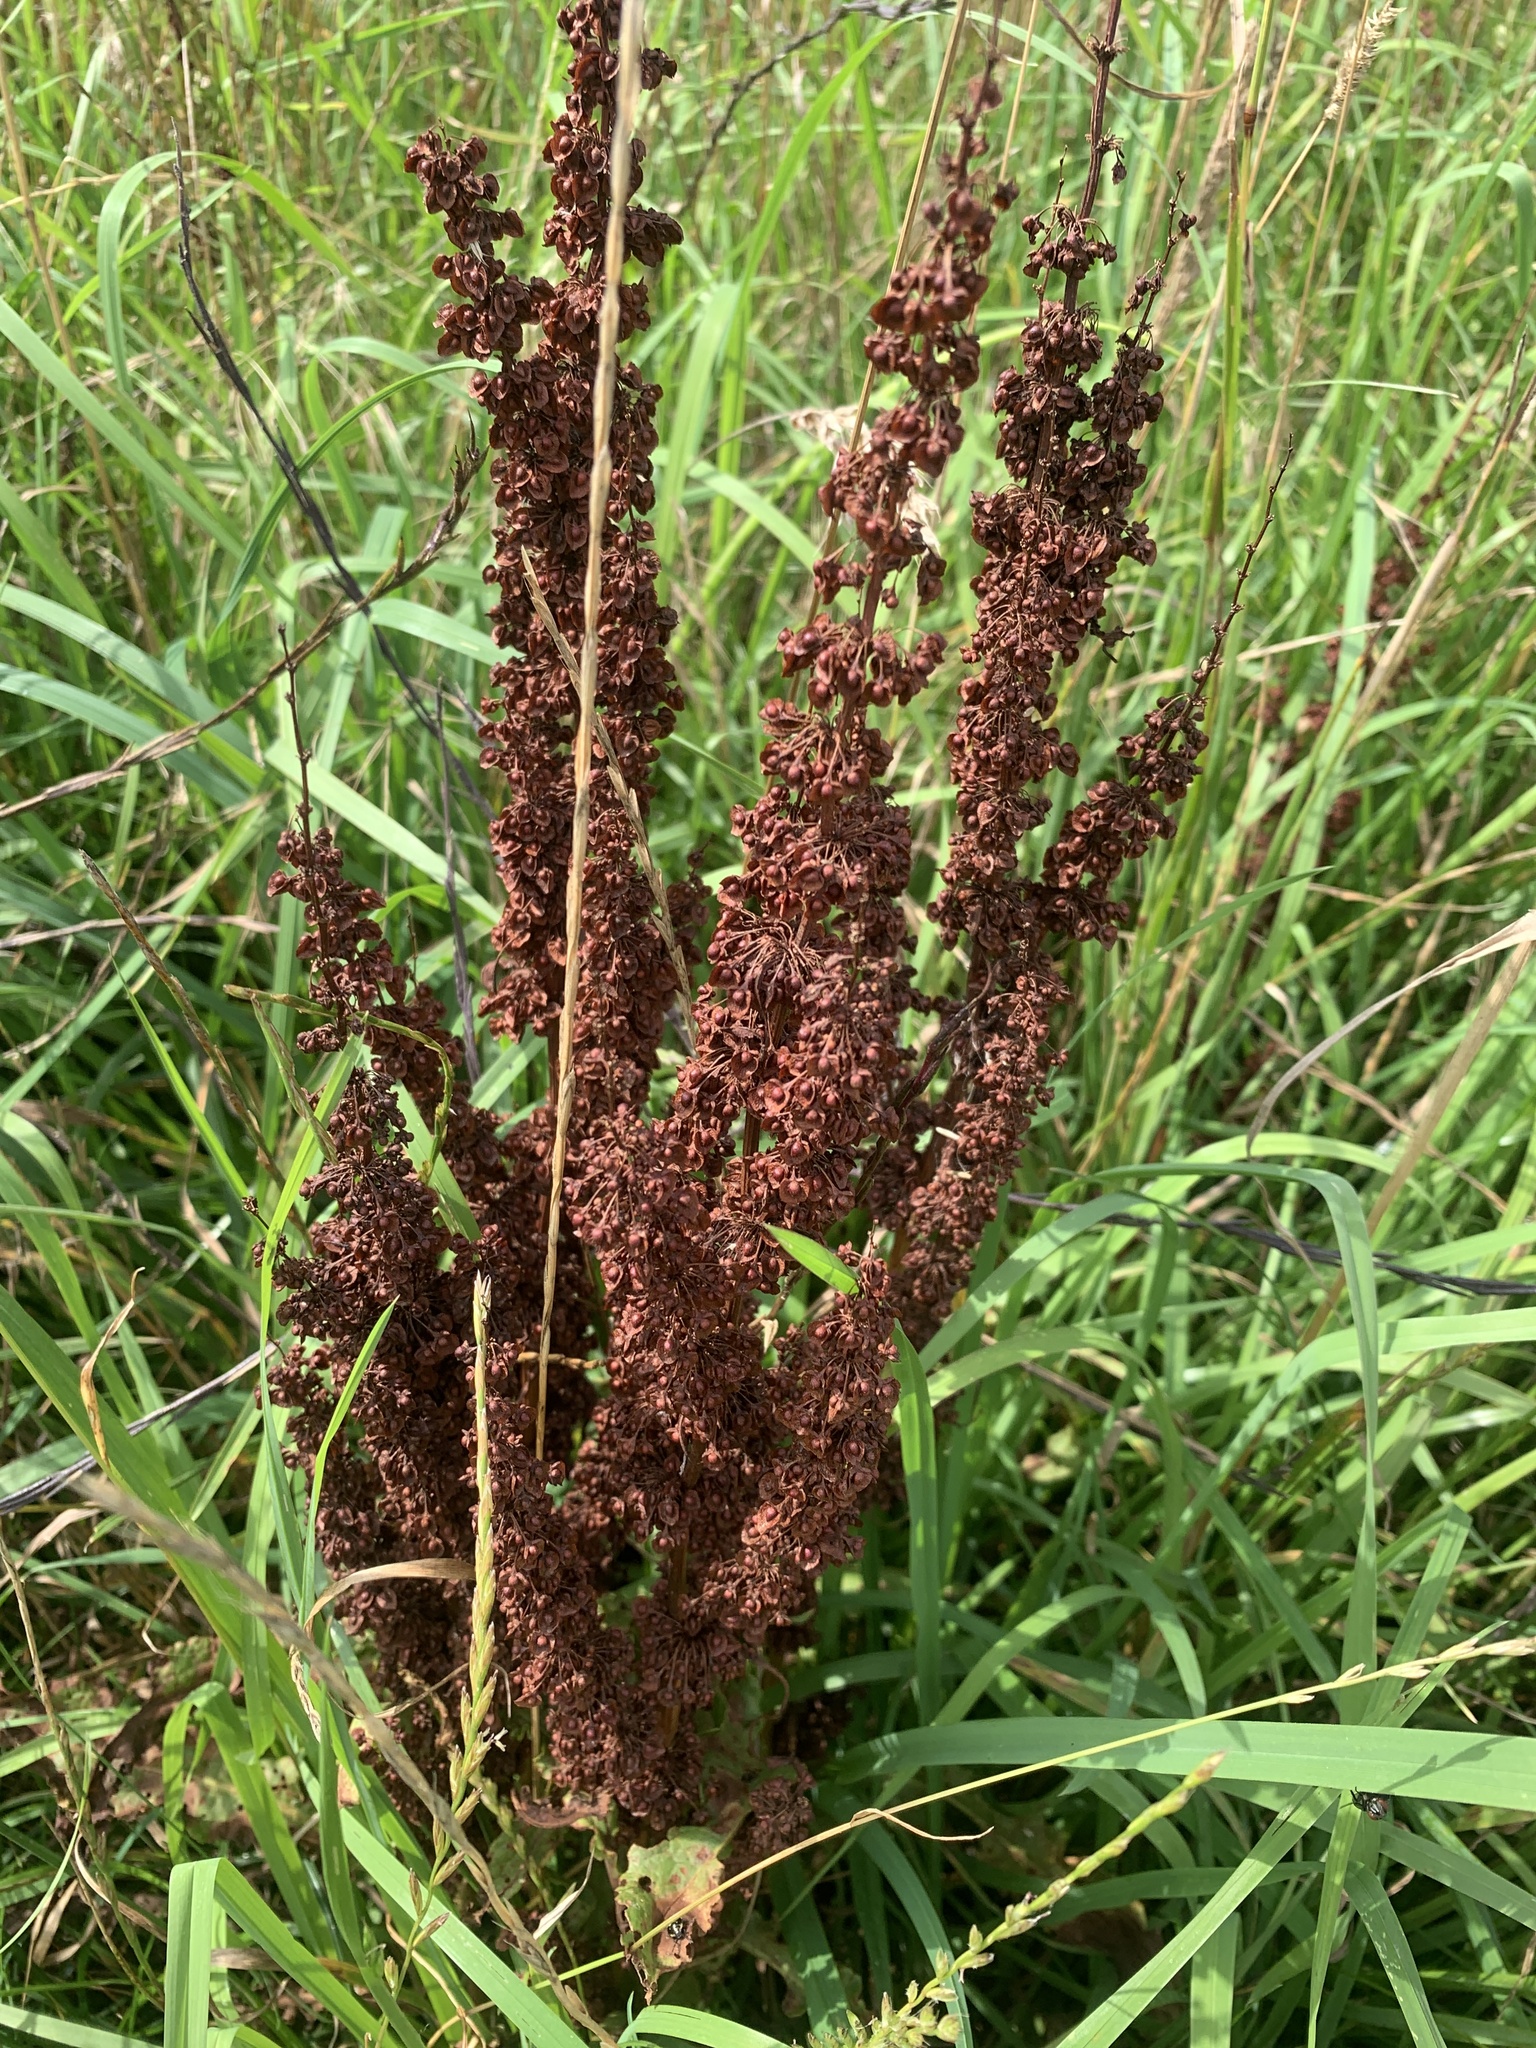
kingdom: Plantae
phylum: Tracheophyta
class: Magnoliopsida
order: Caryophyllales
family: Polygonaceae
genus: Rumex
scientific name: Rumex crispus
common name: Curled dock
